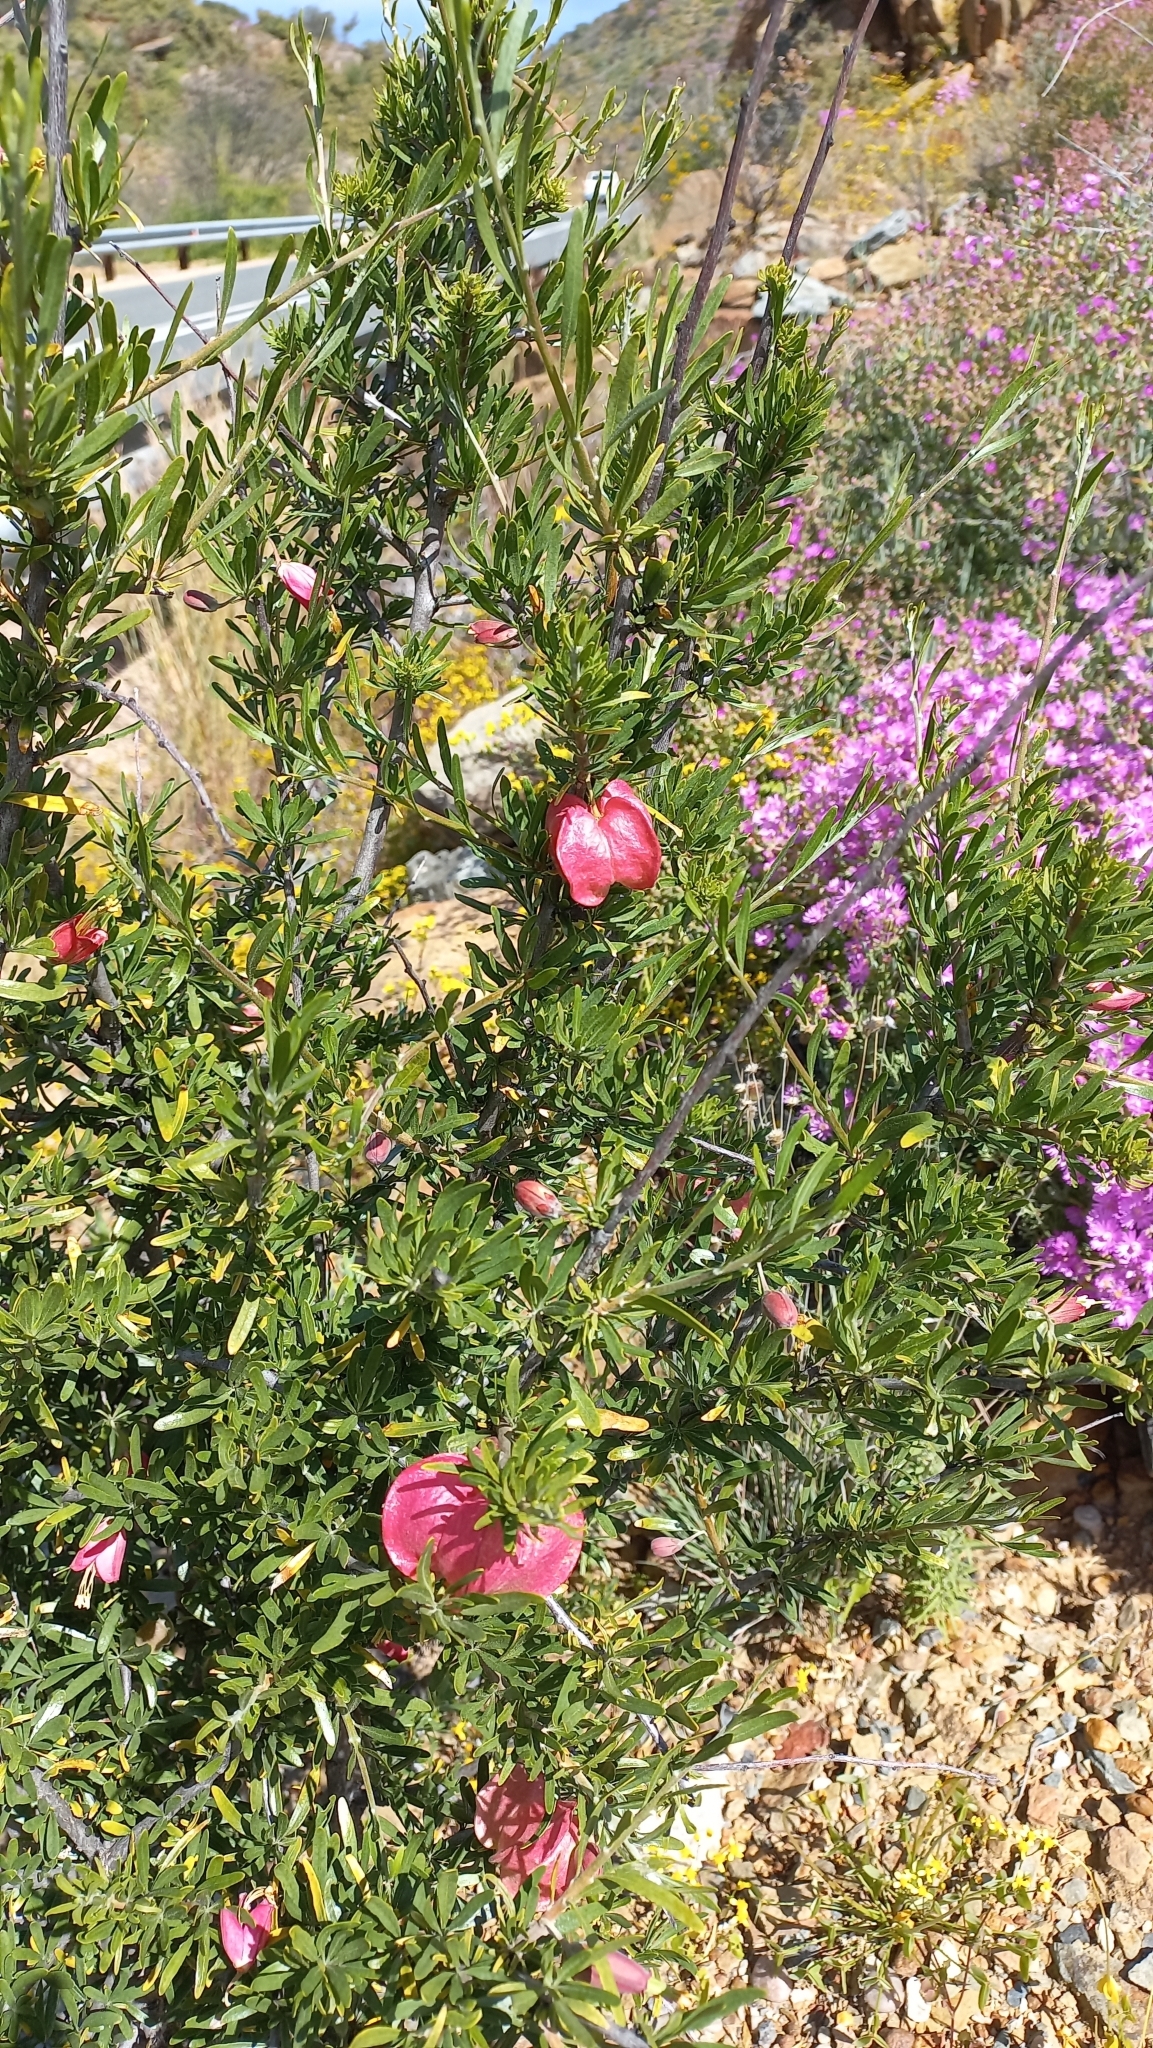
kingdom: Plantae
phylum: Tracheophyta
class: Magnoliopsida
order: Sapindales
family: Meliaceae
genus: Nymania
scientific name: Nymania capensis
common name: Chinese lantern tree
